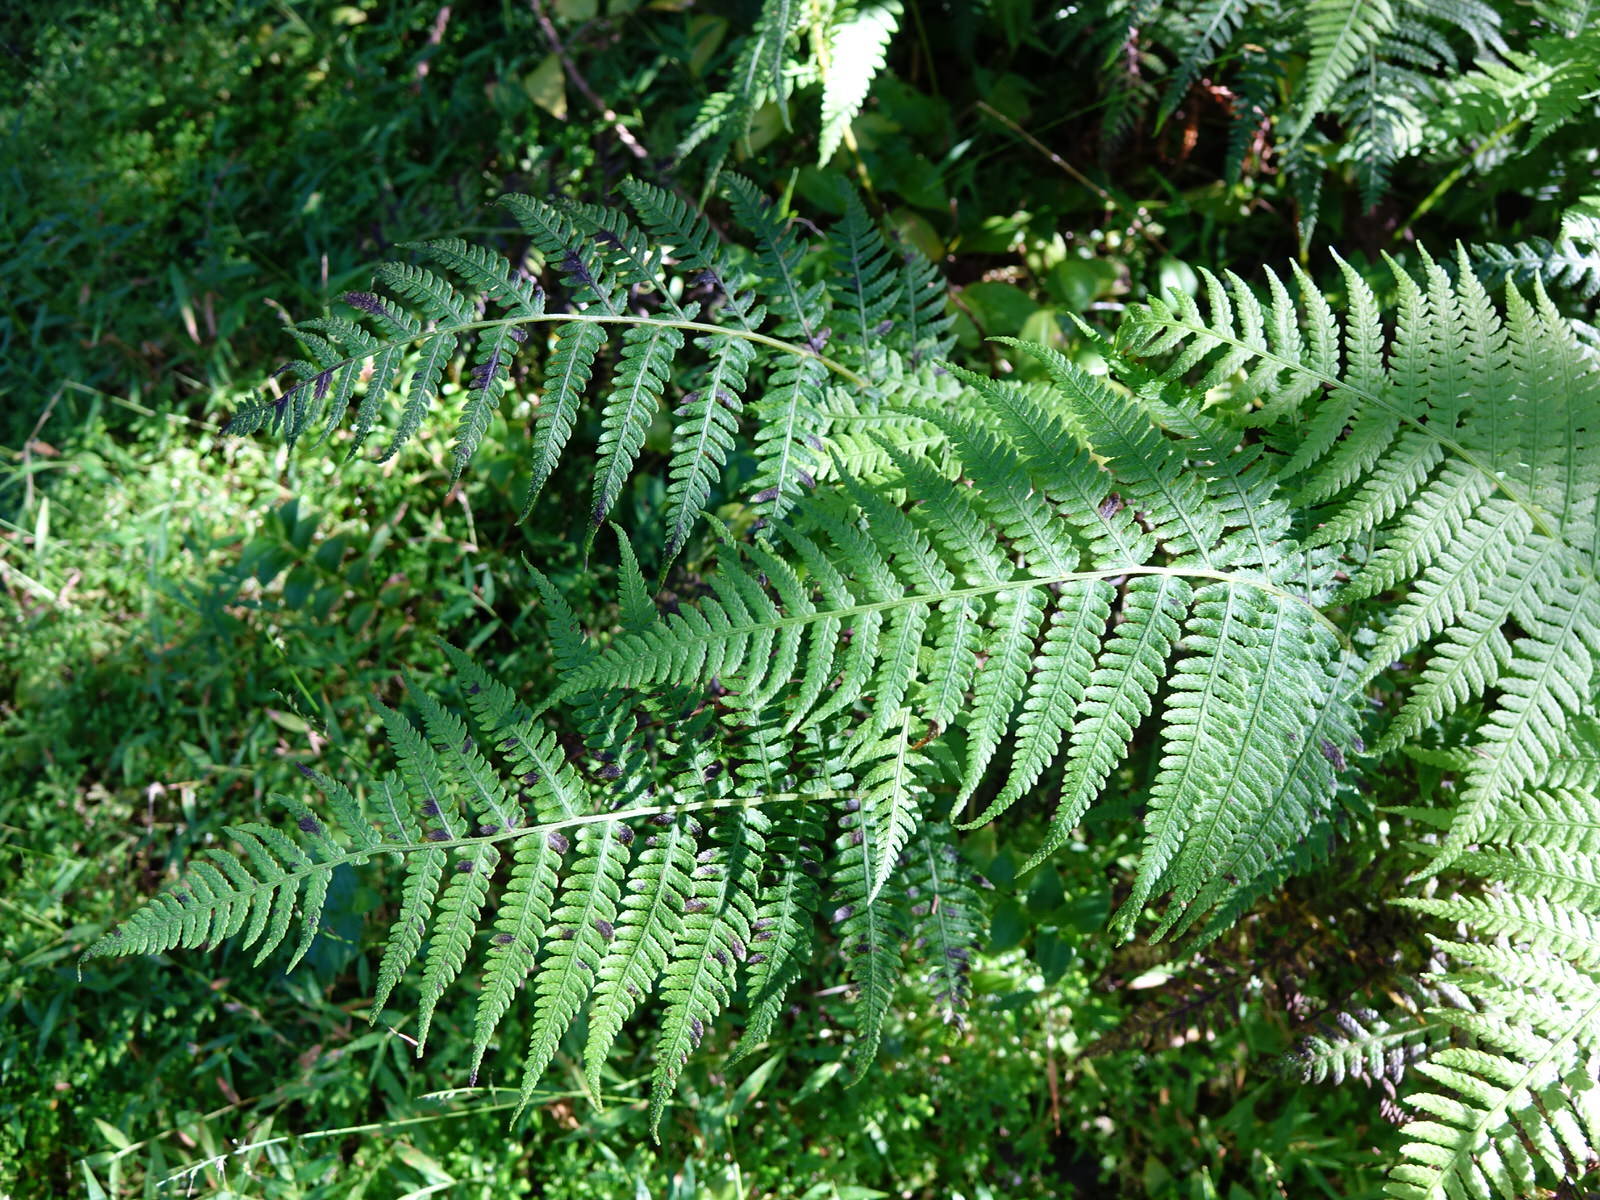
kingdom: Plantae
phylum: Tracheophyta
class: Polypodiopsida
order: Polypodiales
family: Athyriaceae
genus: Diplazium
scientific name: Diplazium congruum
